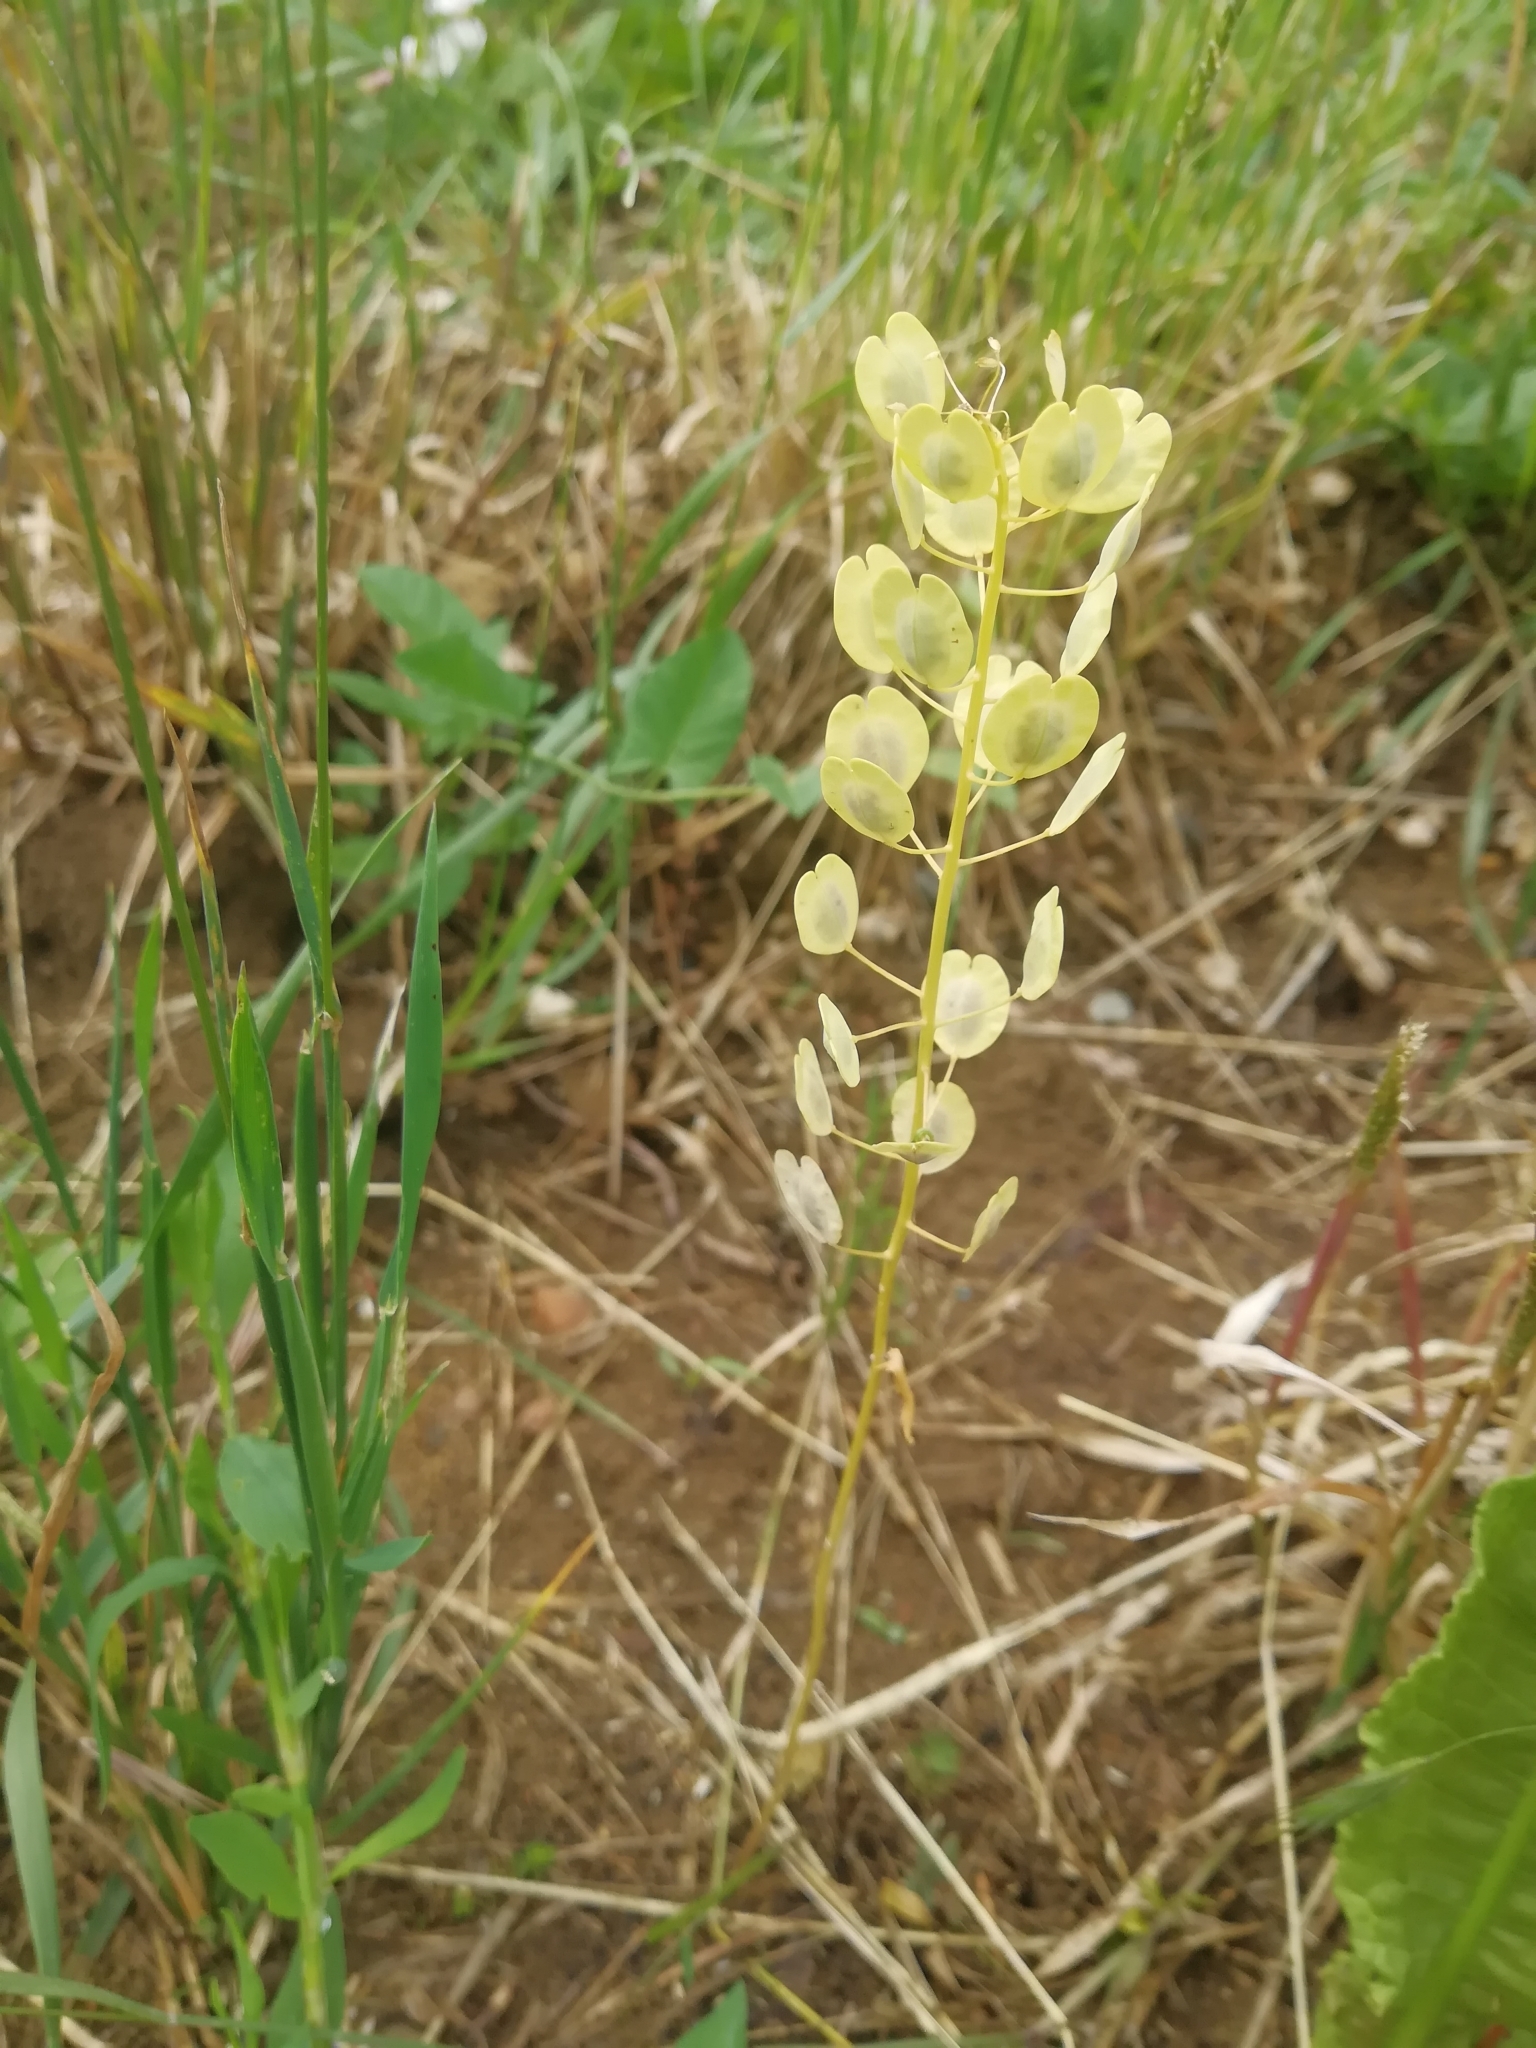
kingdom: Plantae
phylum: Tracheophyta
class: Magnoliopsida
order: Brassicales
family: Brassicaceae
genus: Thlaspi
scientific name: Thlaspi arvense
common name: Field pennycress
